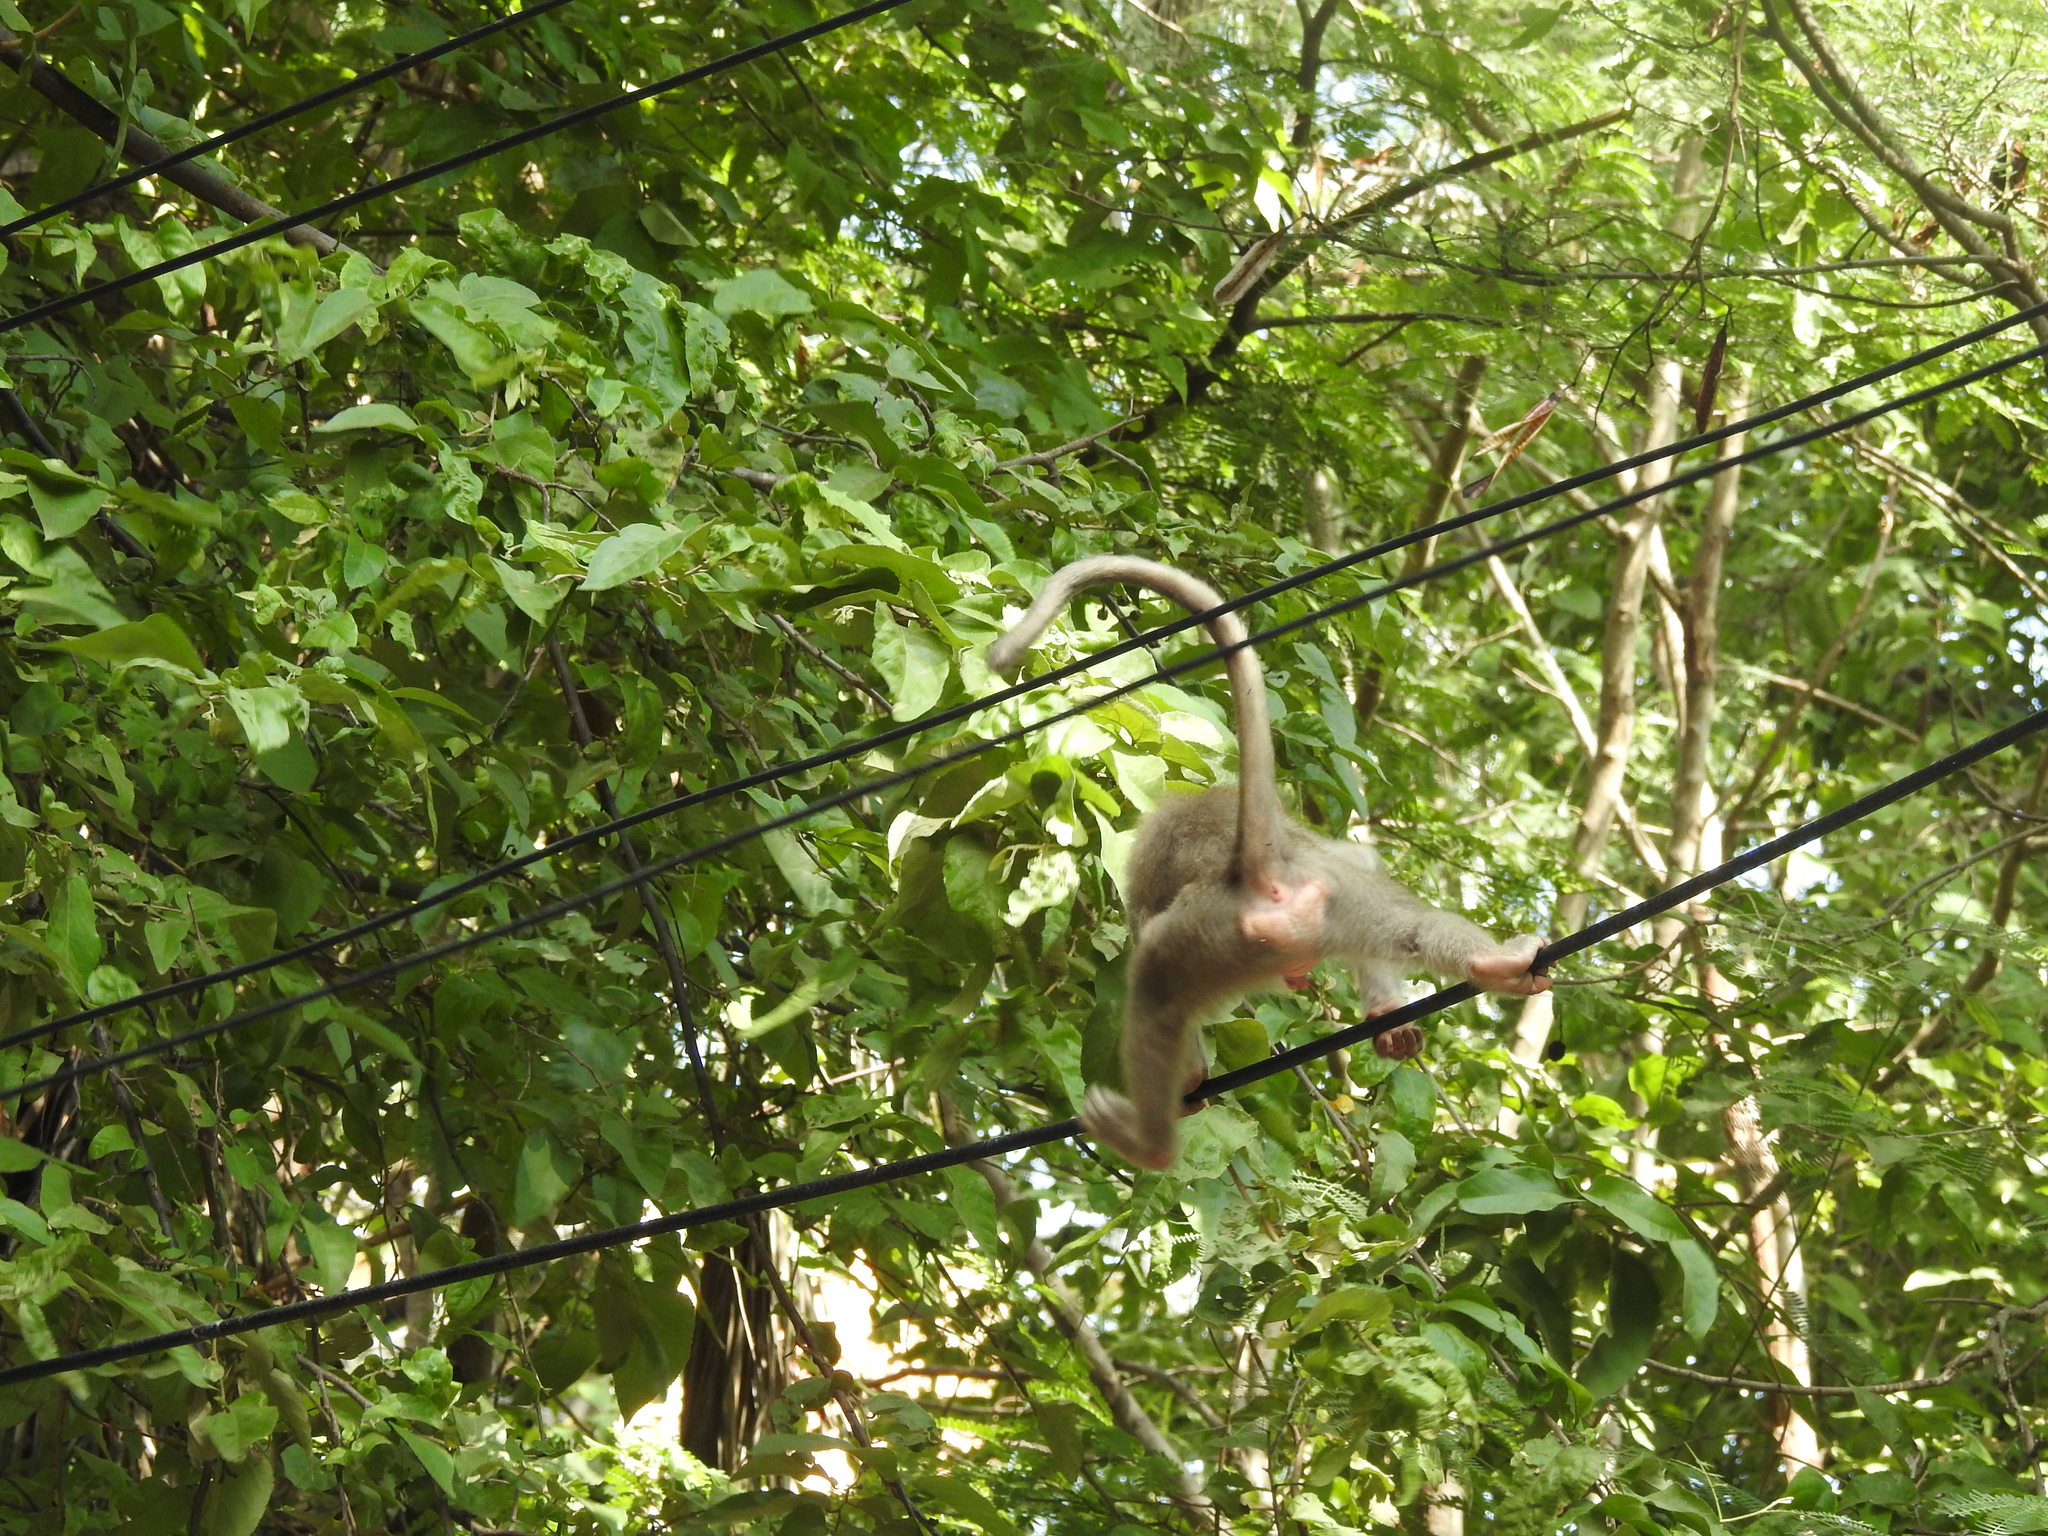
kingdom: Animalia
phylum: Chordata
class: Mammalia
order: Primates
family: Cercopithecidae
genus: Macaca
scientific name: Macaca radiata
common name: Bonnet macaque
